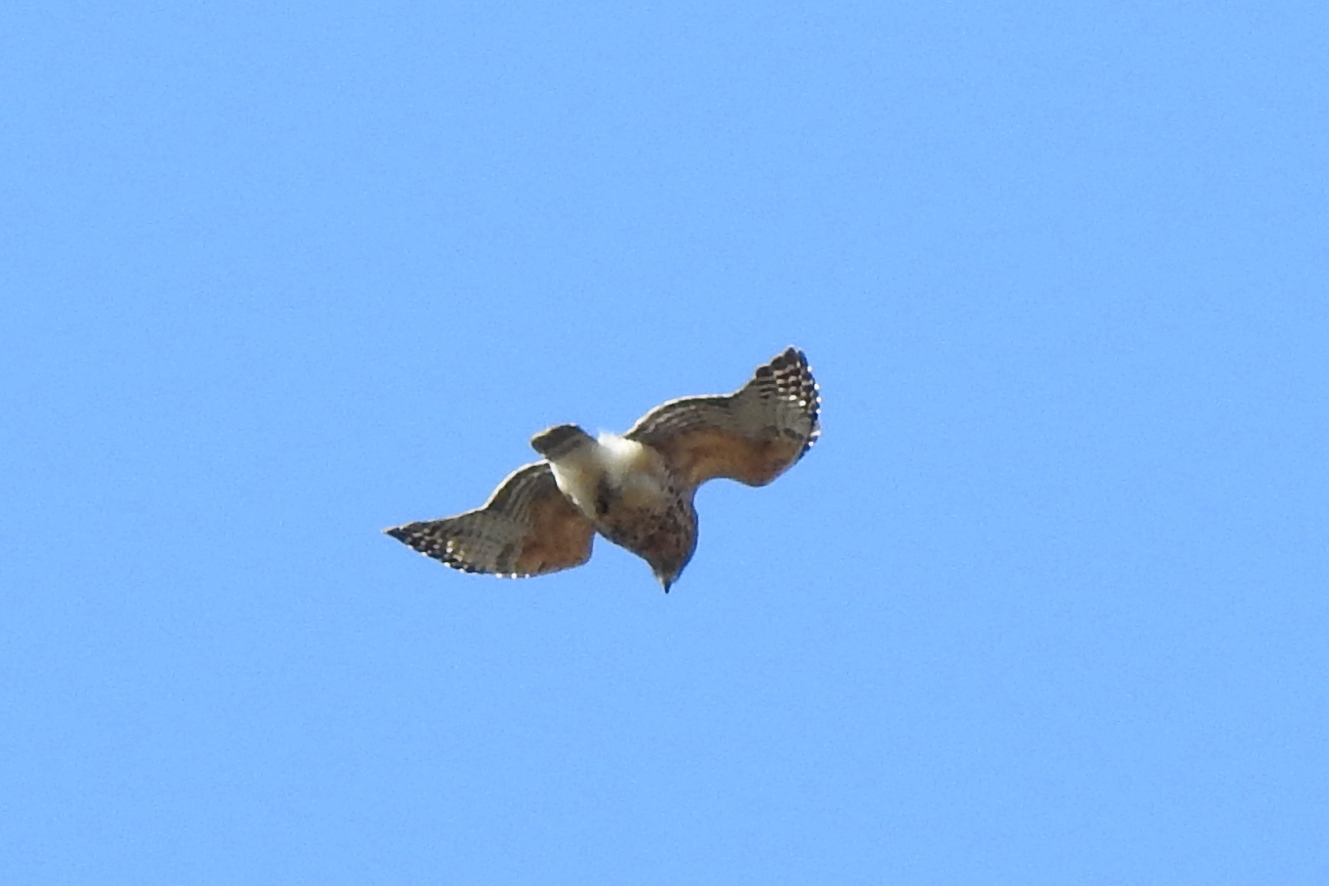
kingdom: Animalia
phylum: Chordata
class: Aves
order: Accipitriformes
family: Accipitridae
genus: Buteo
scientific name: Buteo lineatus
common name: Red-shouldered hawk
